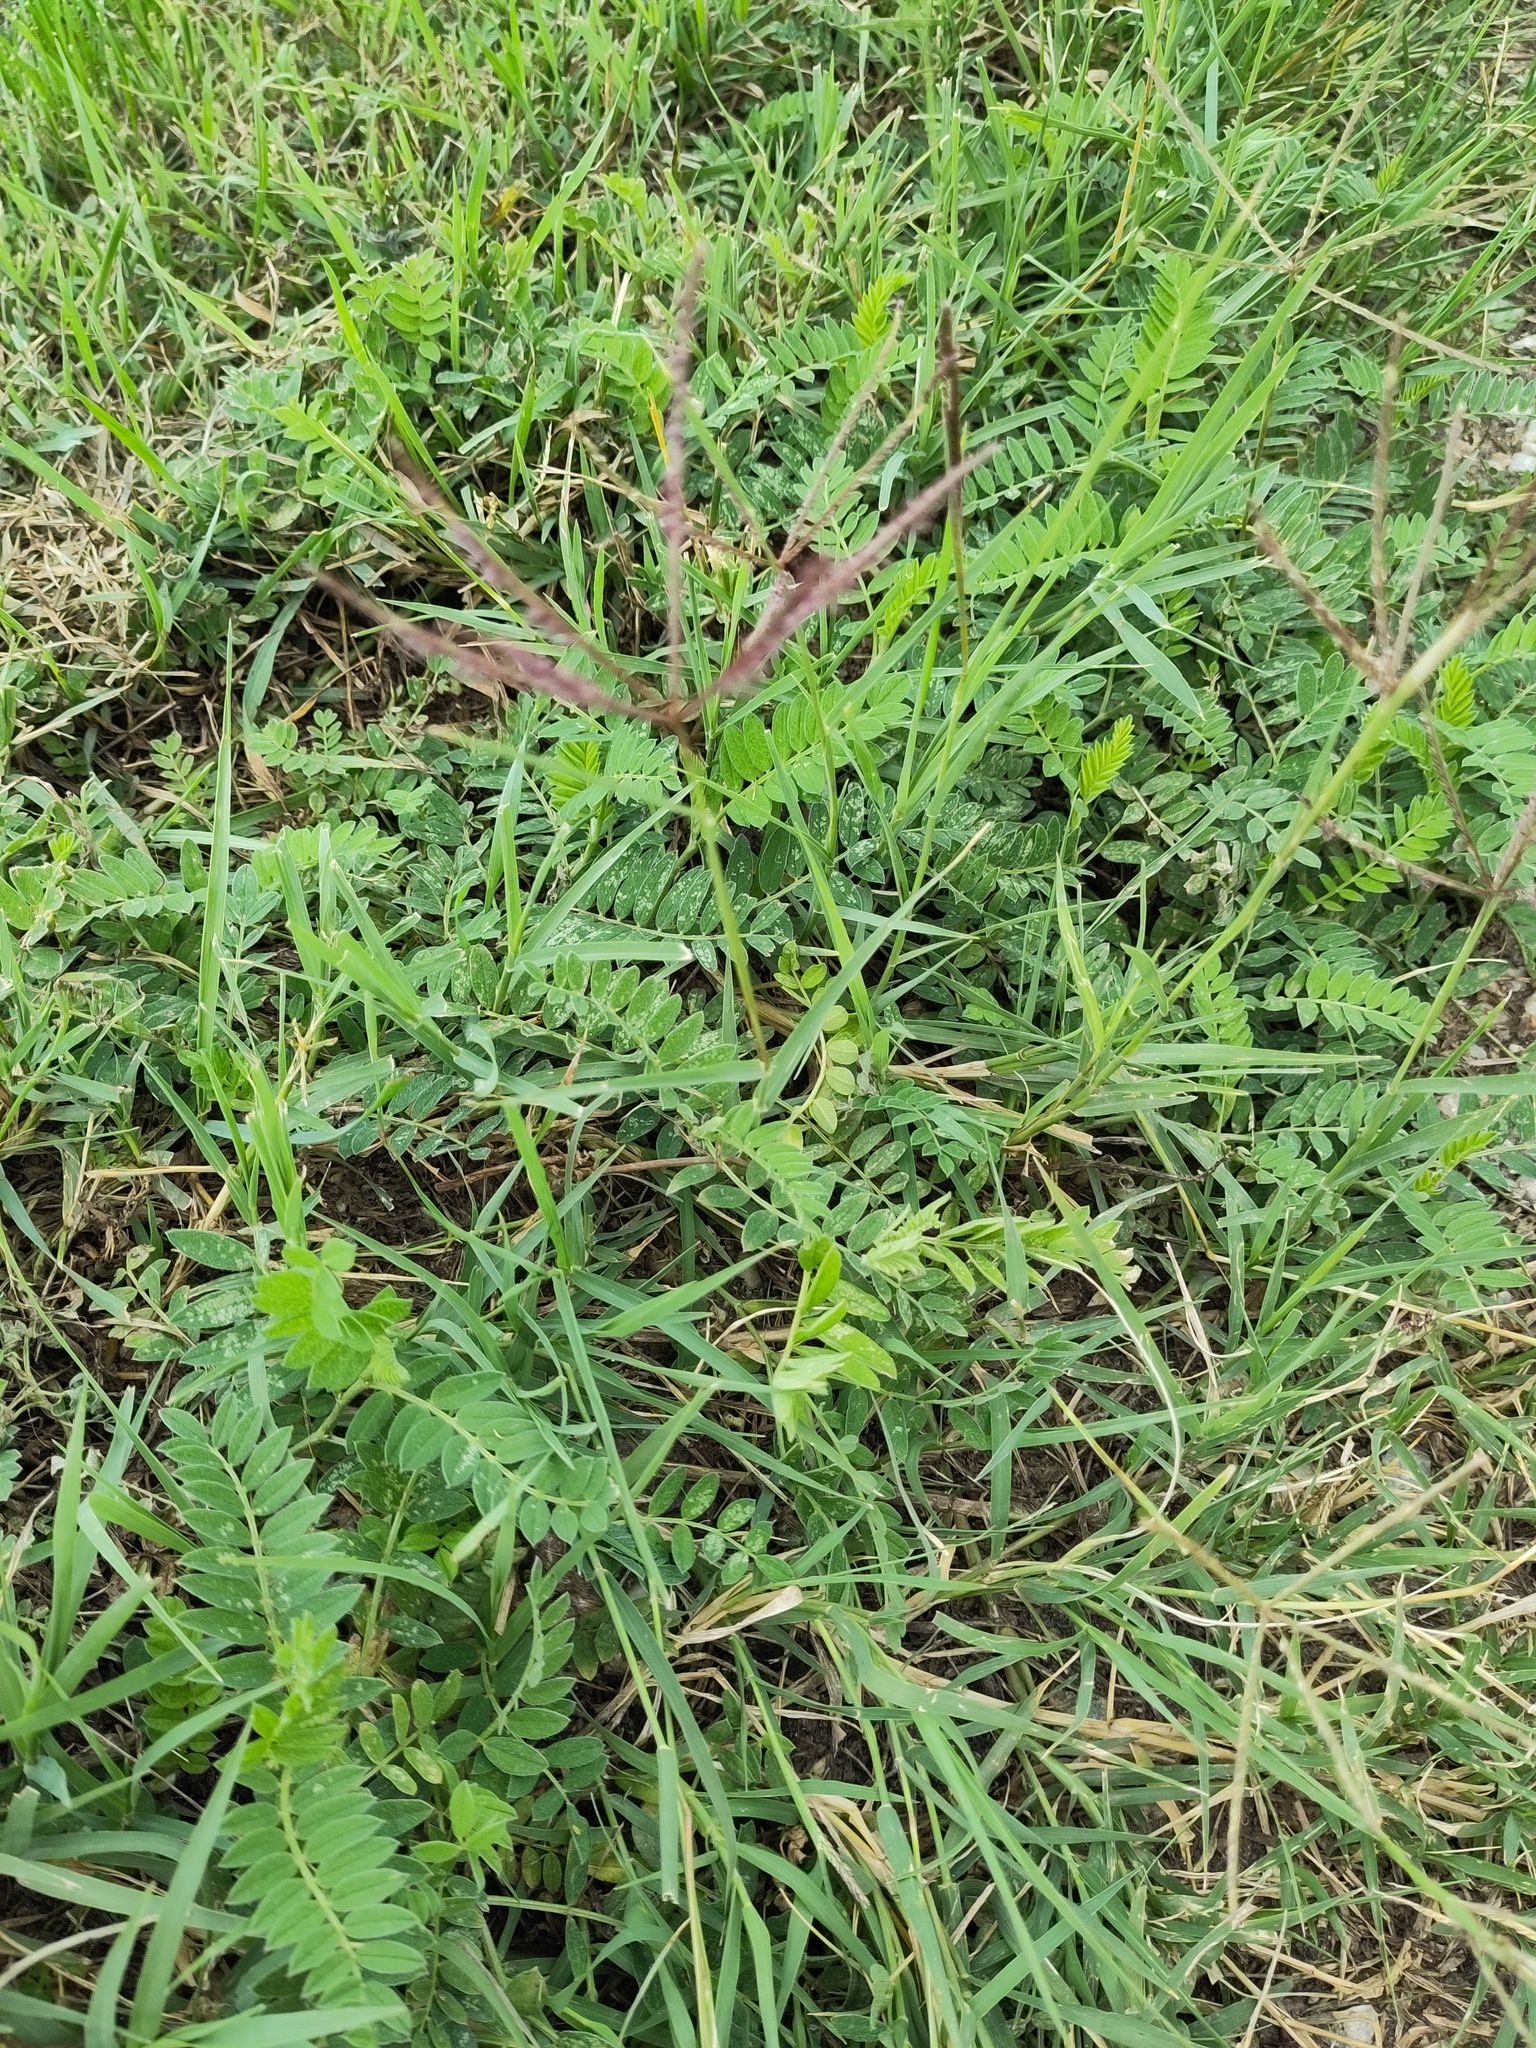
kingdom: Plantae
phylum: Tracheophyta
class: Liliopsida
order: Poales
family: Poaceae
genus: Cynodon
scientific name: Cynodon dactylon
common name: Bermuda grass
